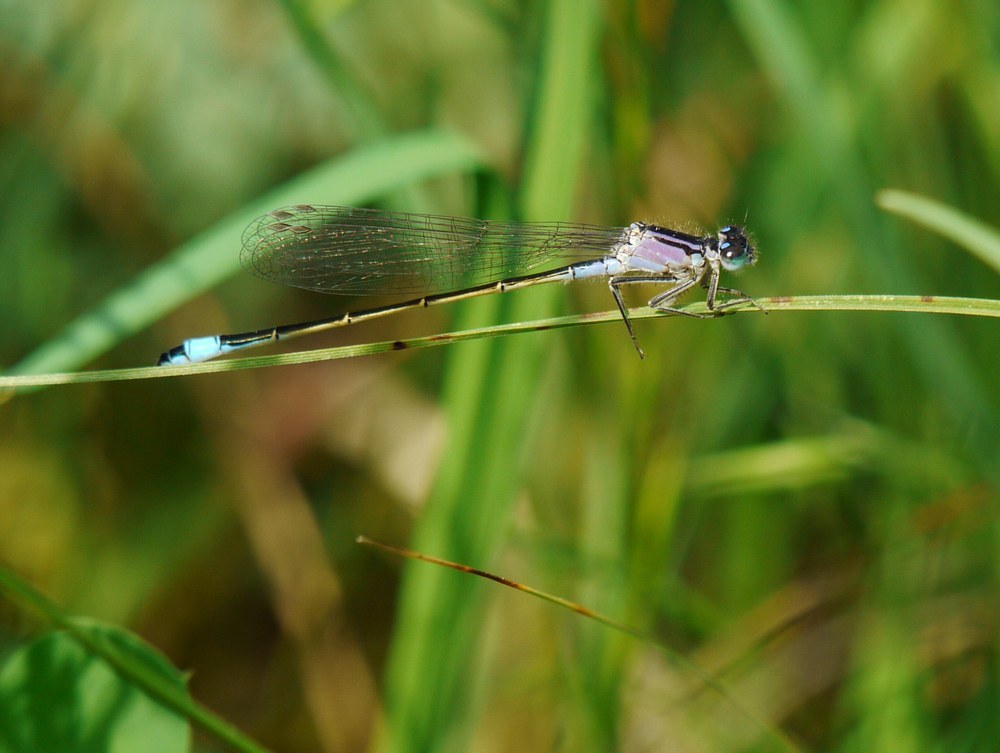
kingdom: Animalia
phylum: Arthropoda
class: Insecta
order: Odonata
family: Coenagrionidae
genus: Ischnura
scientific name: Ischnura elegans
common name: Blue-tailed damselfly
